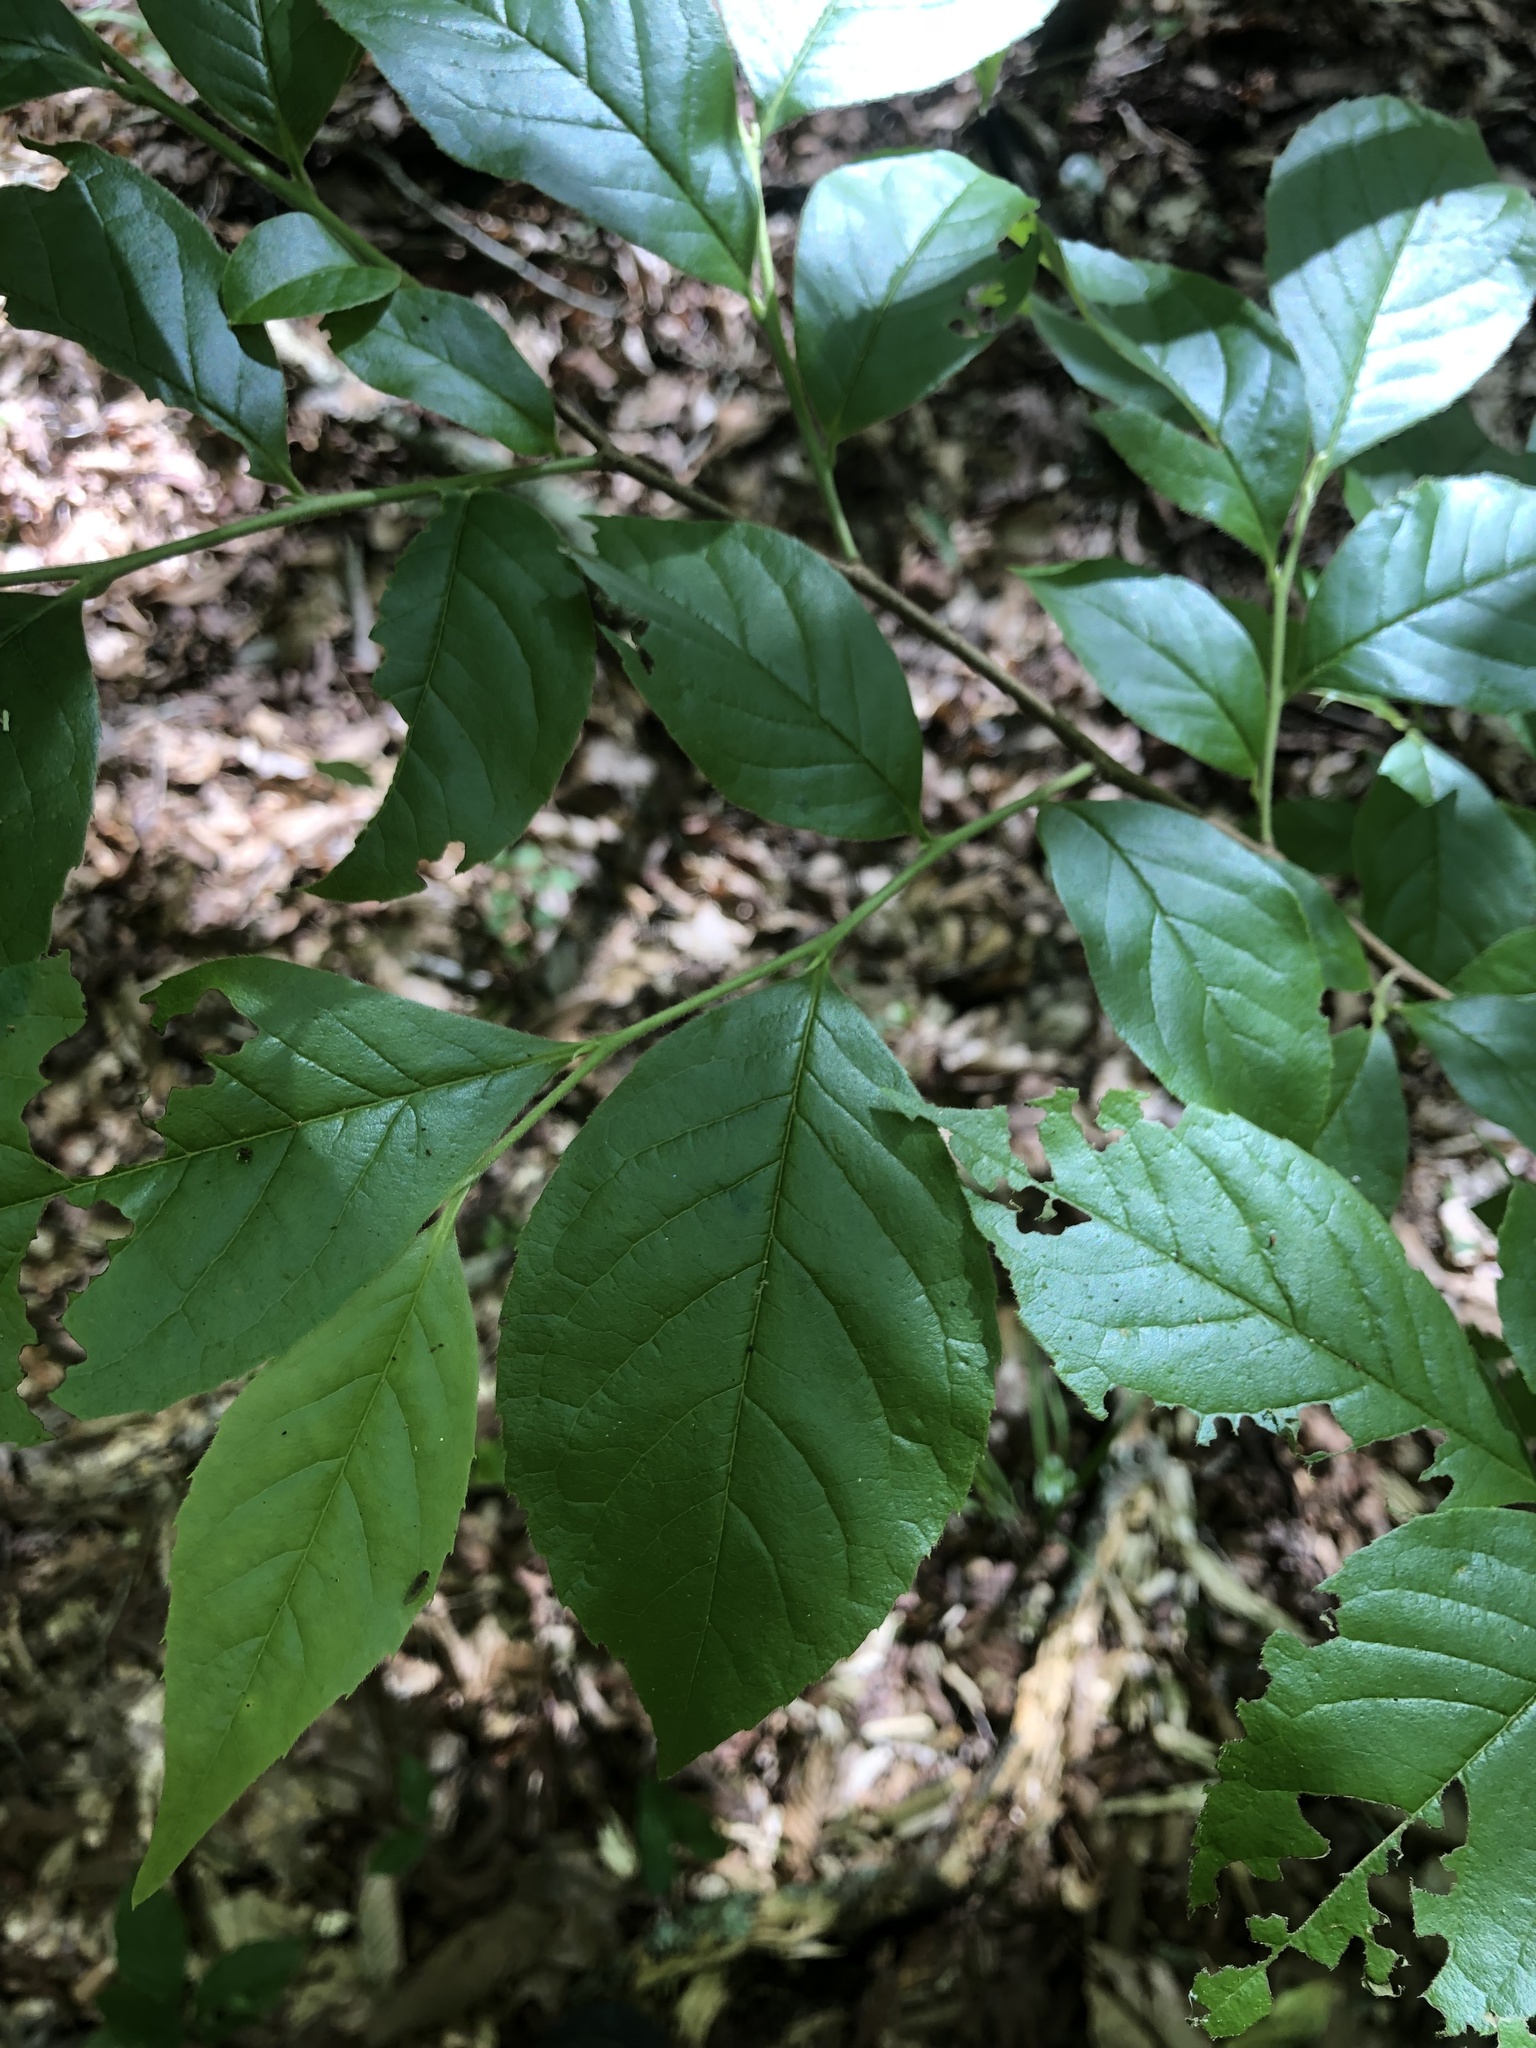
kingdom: Plantae
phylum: Tracheophyta
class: Magnoliopsida
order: Ericales
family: Theaceae
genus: Stewartia
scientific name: Stewartia malacodendron
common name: Virginia stewartia
